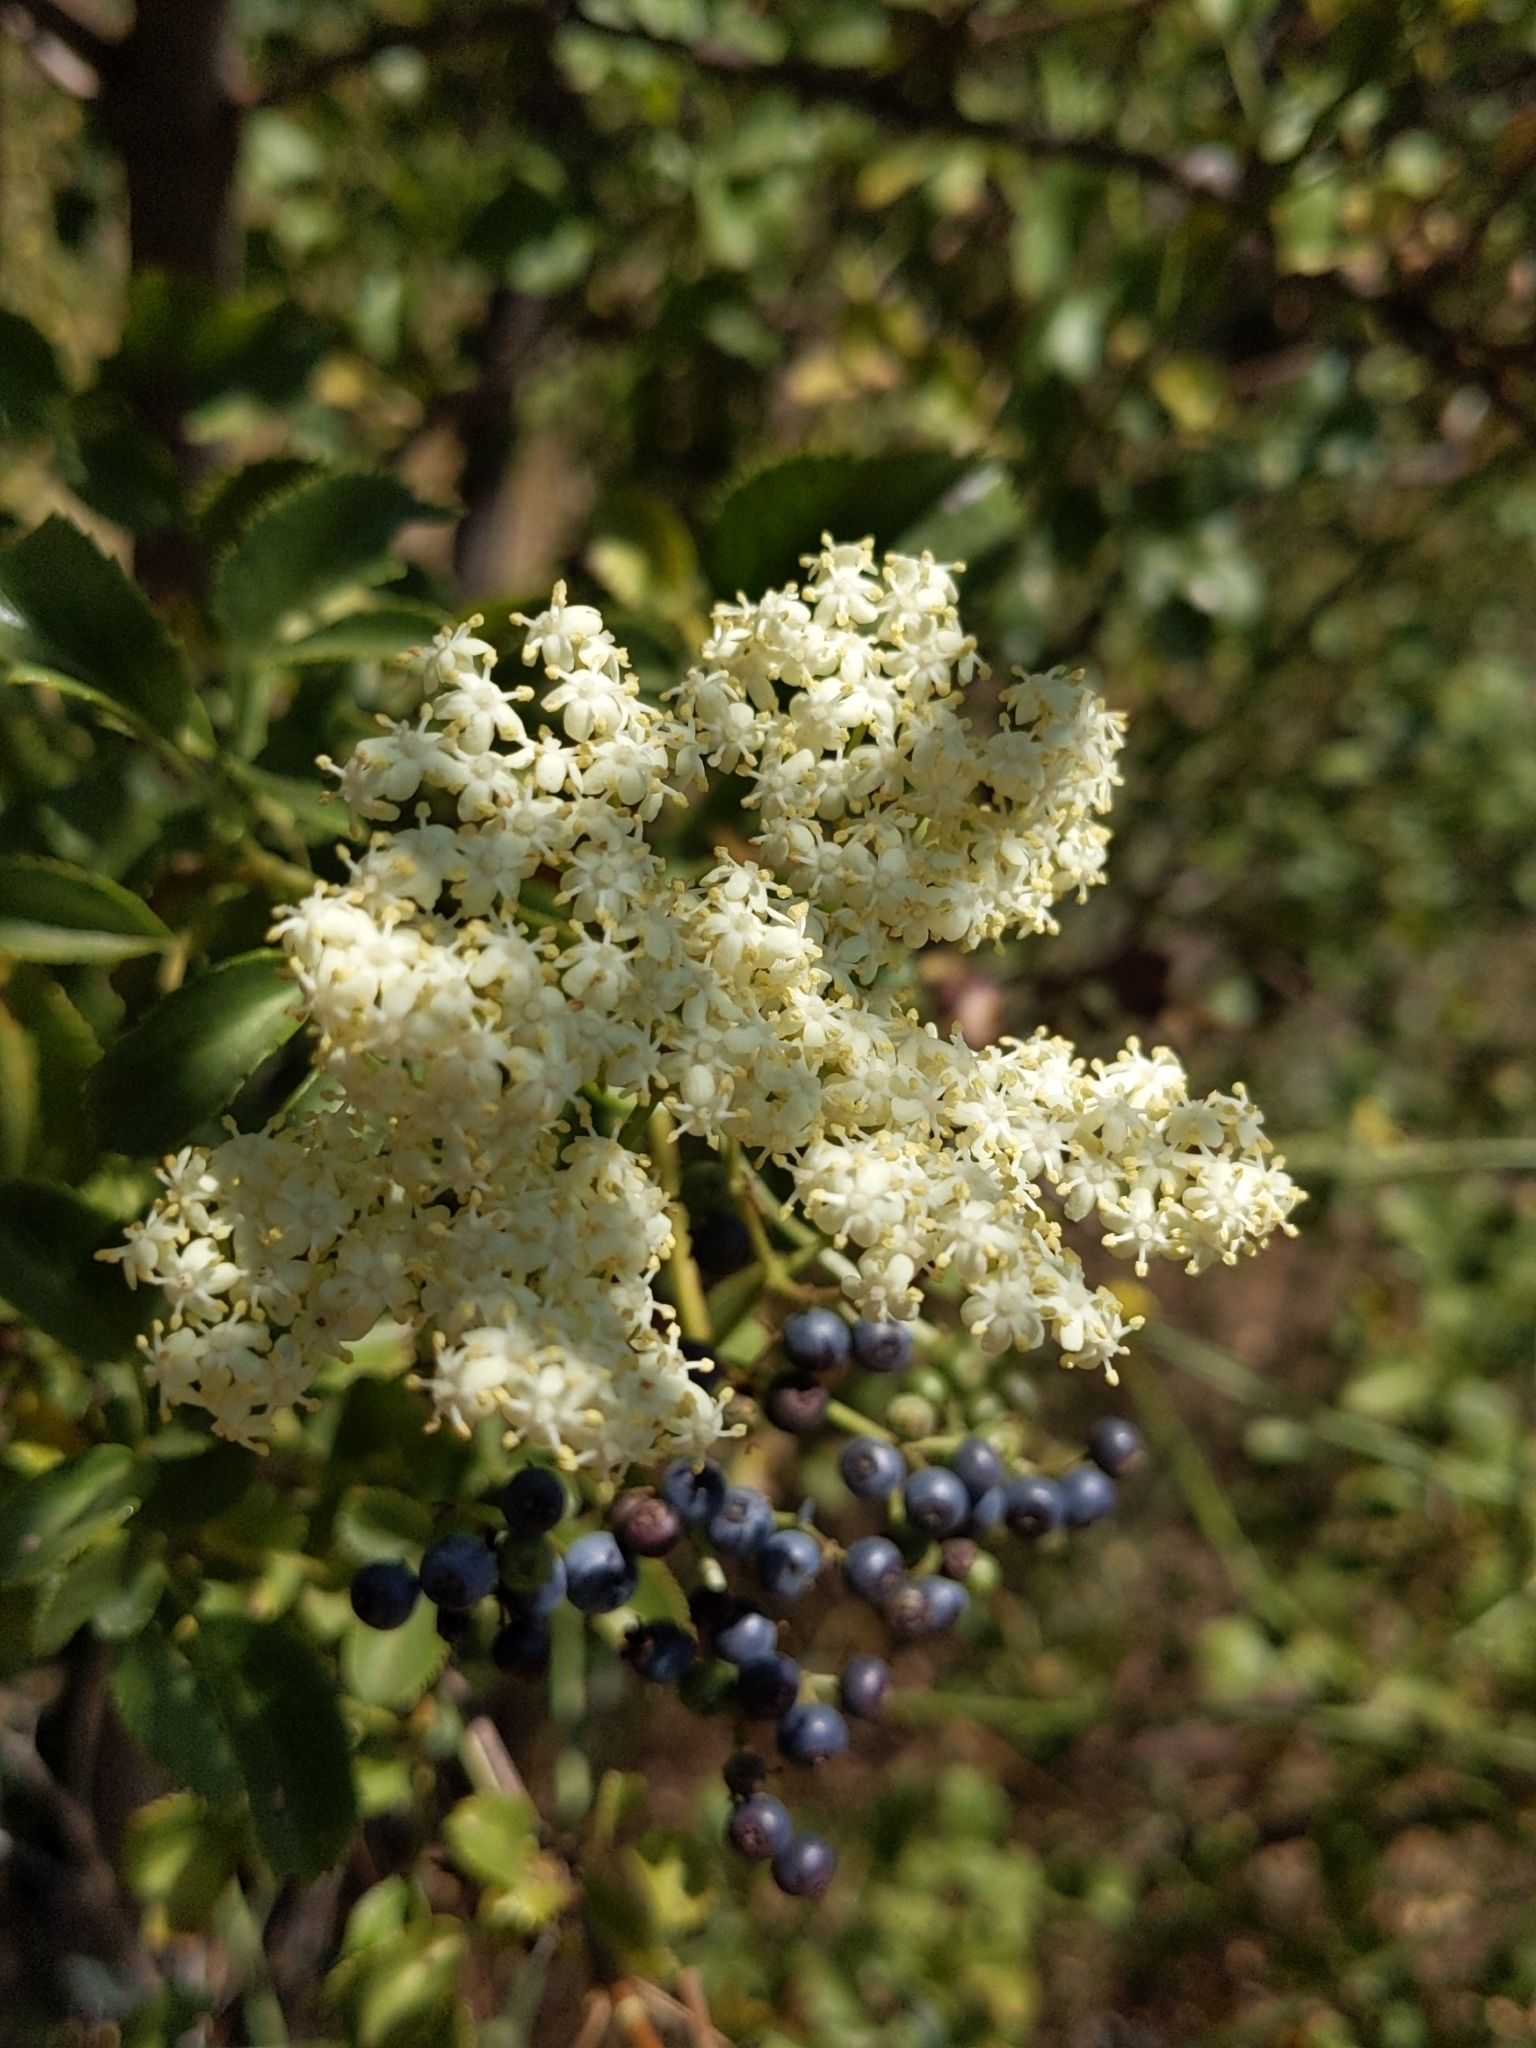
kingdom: Plantae
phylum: Tracheophyta
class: Magnoliopsida
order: Dipsacales
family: Viburnaceae
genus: Sambucus
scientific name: Sambucus cerulea
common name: Blue elder
